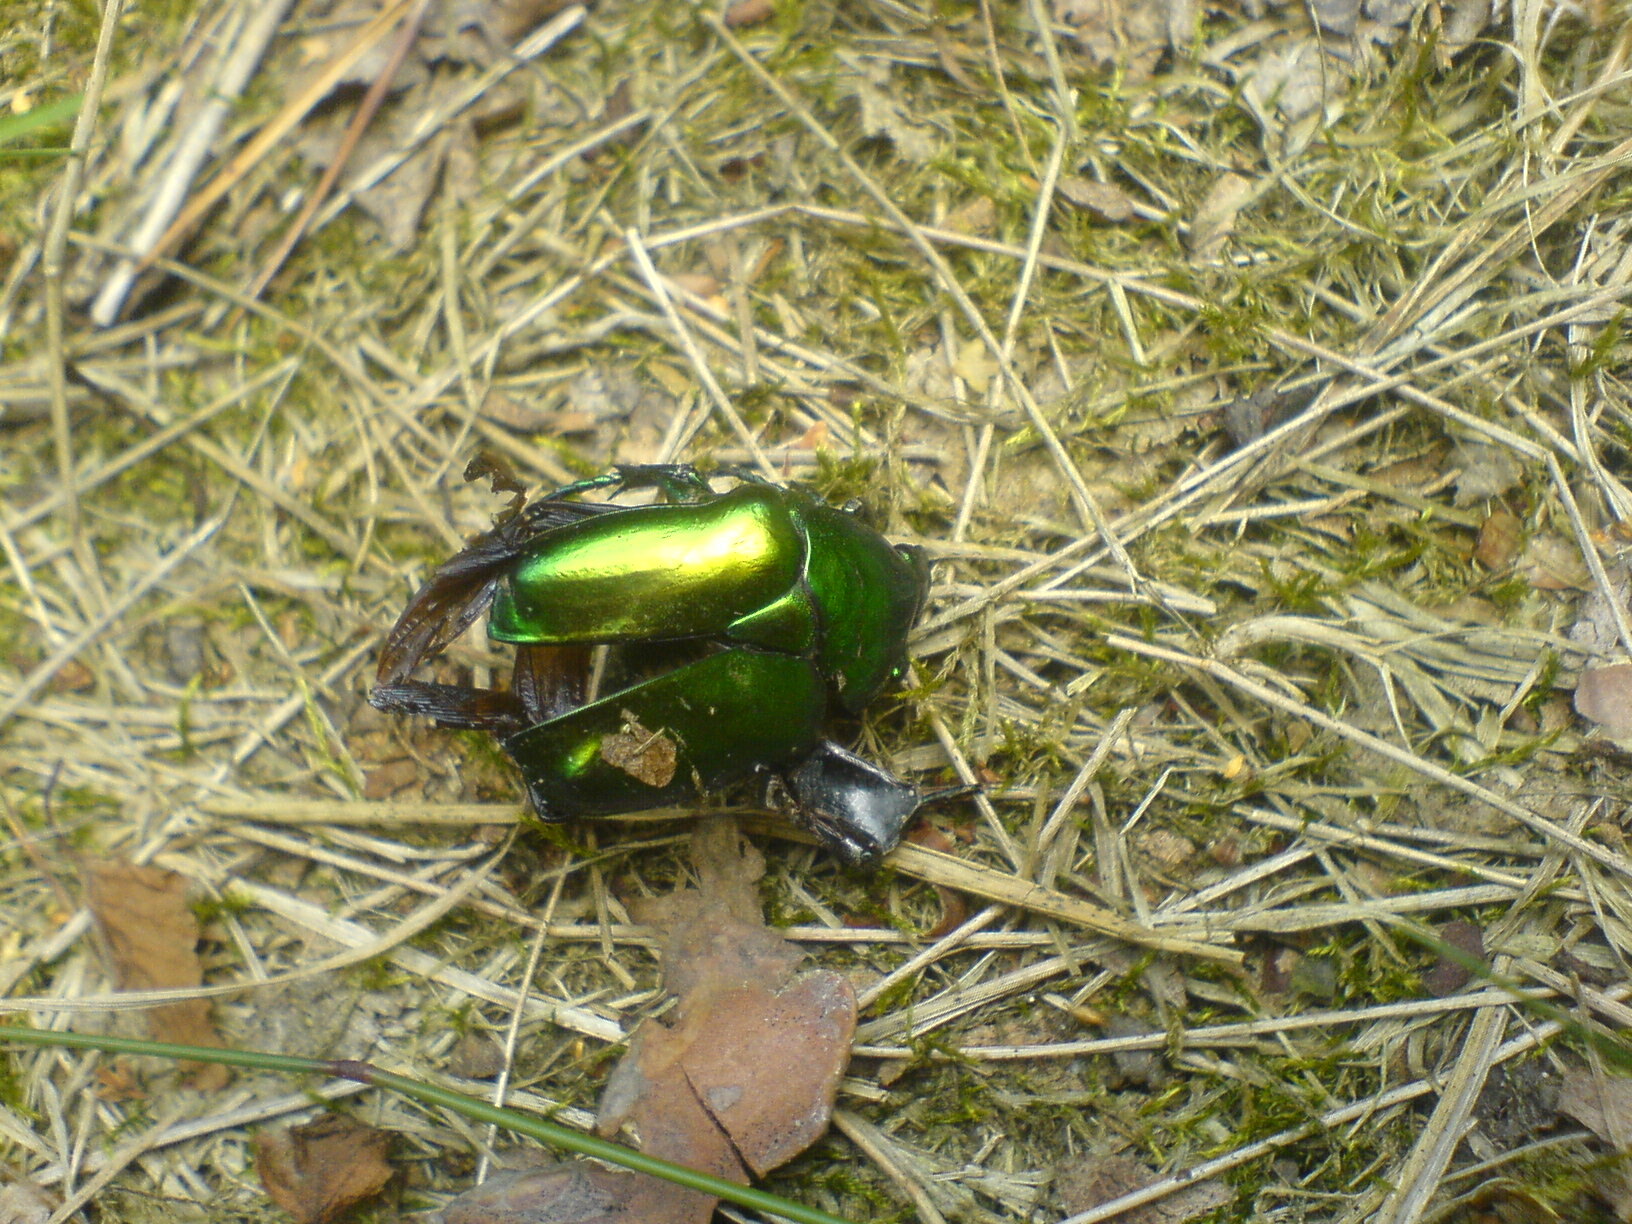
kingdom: Animalia
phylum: Arthropoda
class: Insecta
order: Coleoptera
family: Scarabaeidae
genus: Protaetia
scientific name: Protaetia speciosissima
